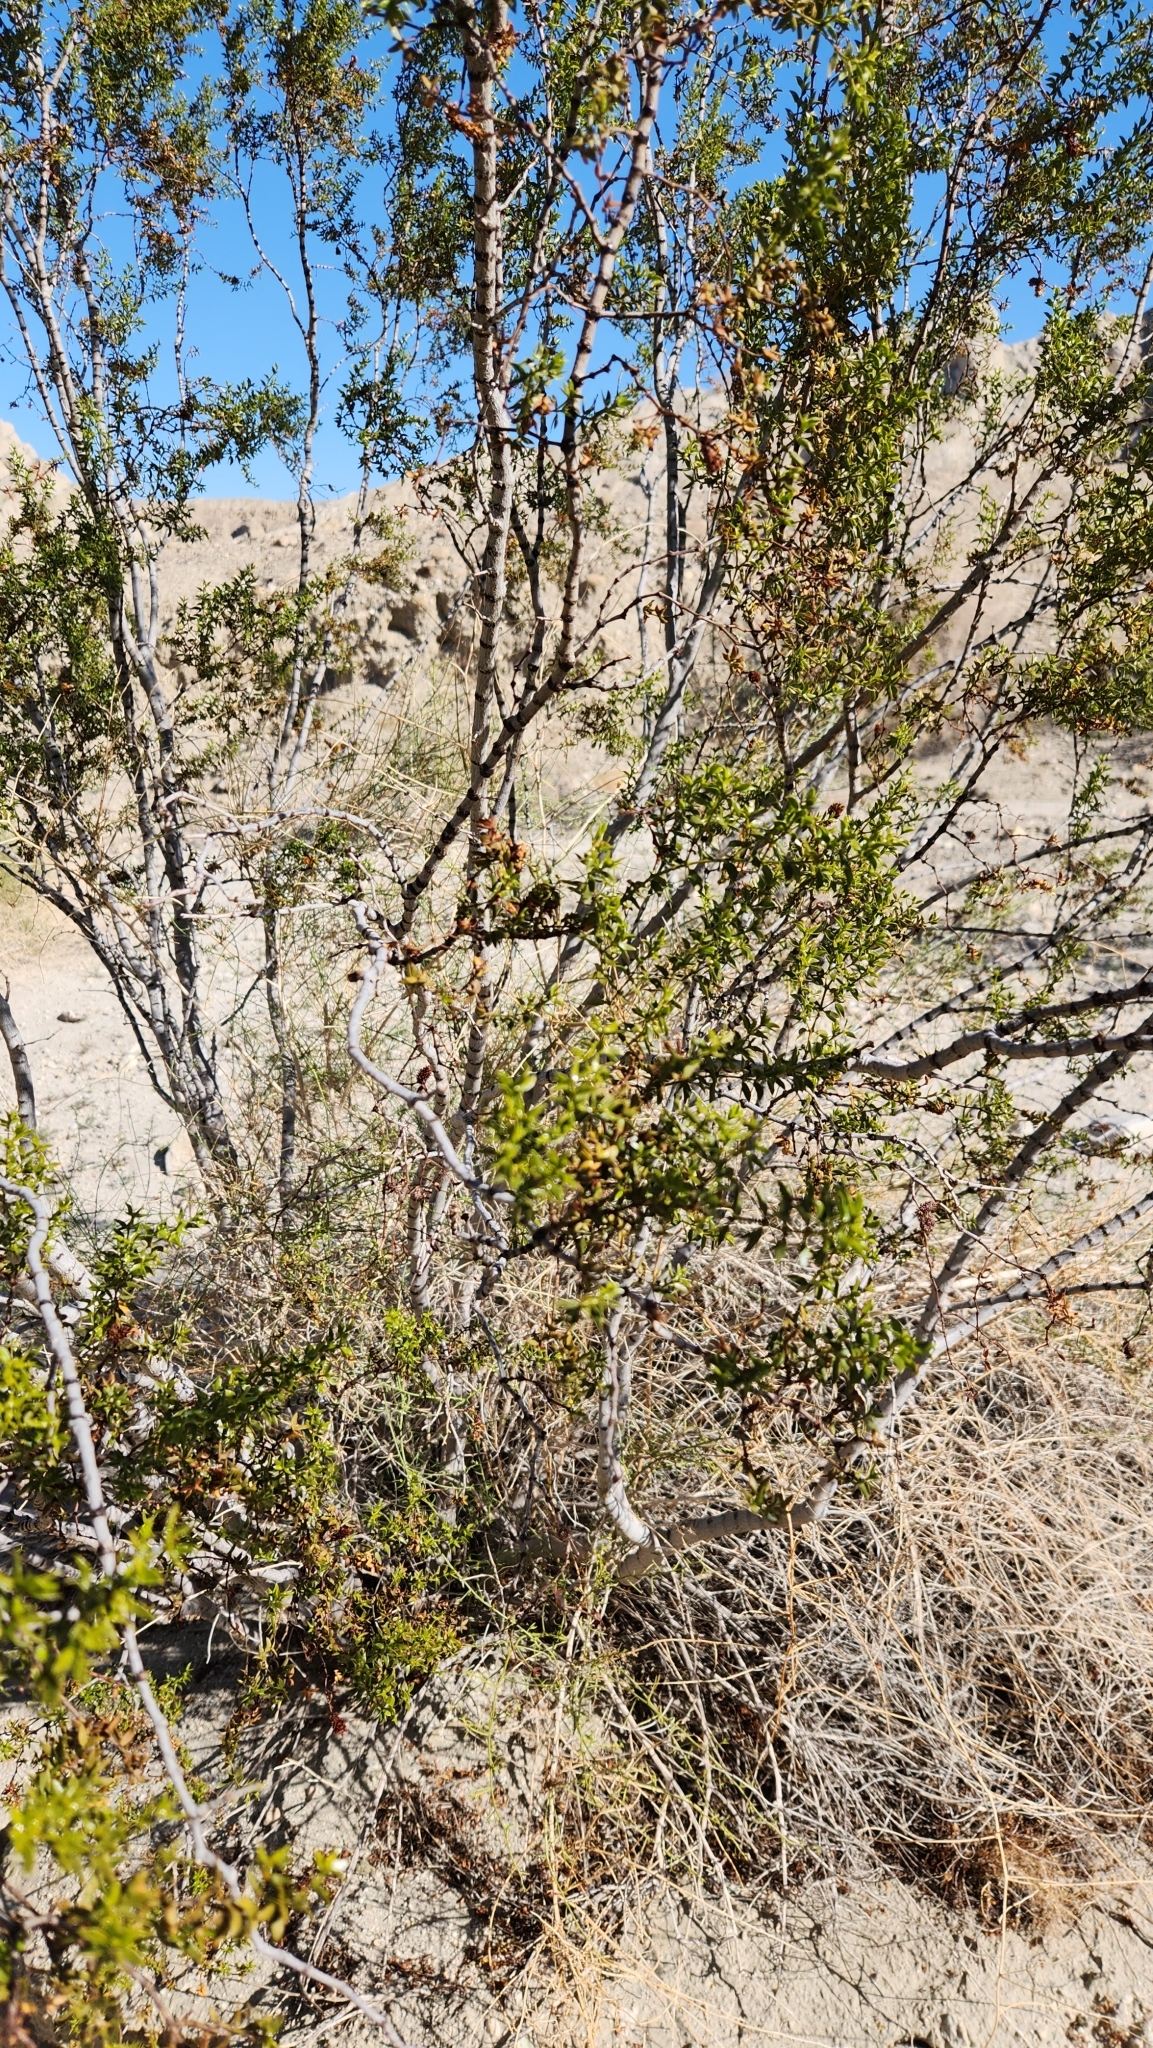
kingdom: Plantae
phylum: Tracheophyta
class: Magnoliopsida
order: Zygophyllales
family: Zygophyllaceae
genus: Larrea
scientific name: Larrea tridentata
